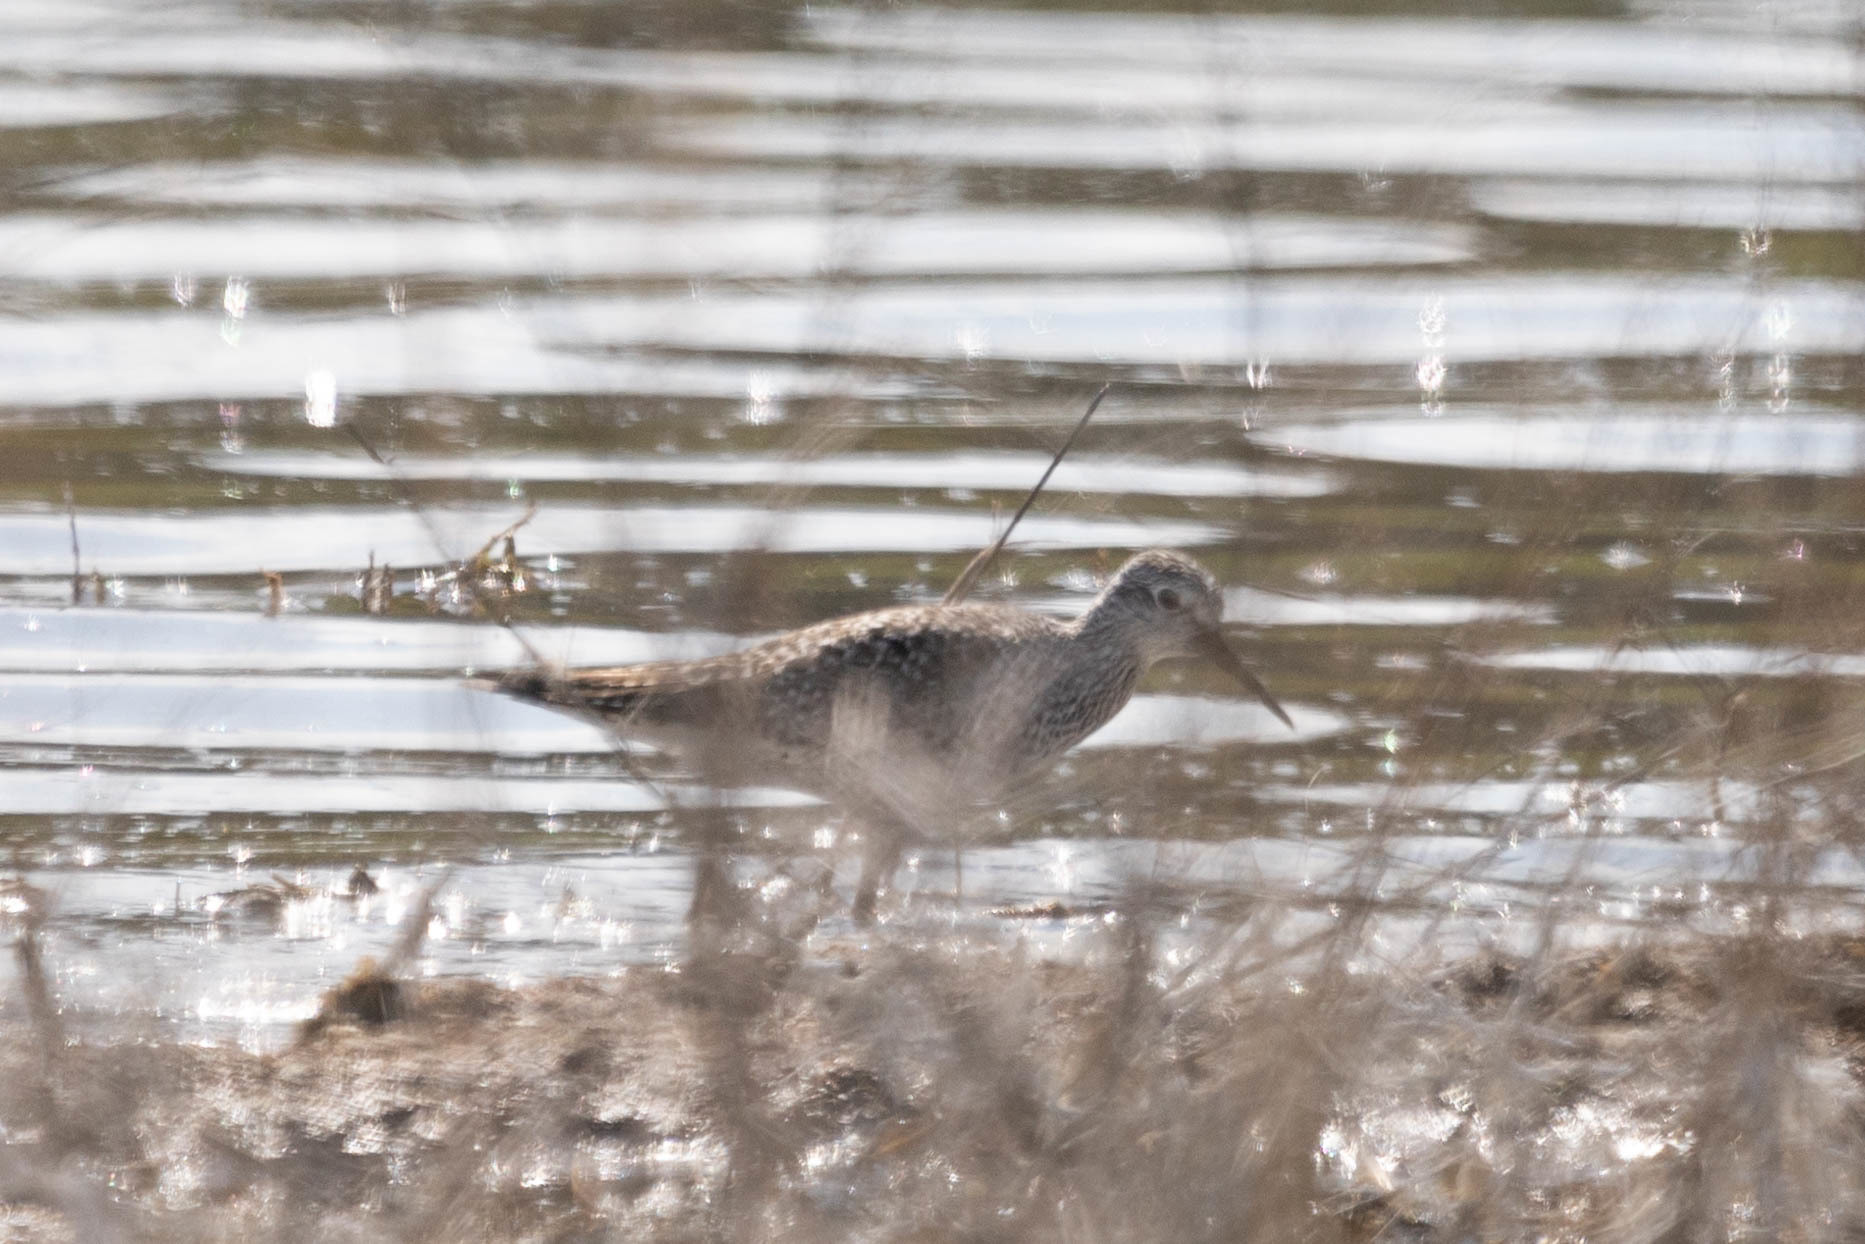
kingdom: Animalia
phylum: Chordata
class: Aves
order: Charadriiformes
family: Scolopacidae
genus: Tringa
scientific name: Tringa flavipes
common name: Lesser yellowlegs
